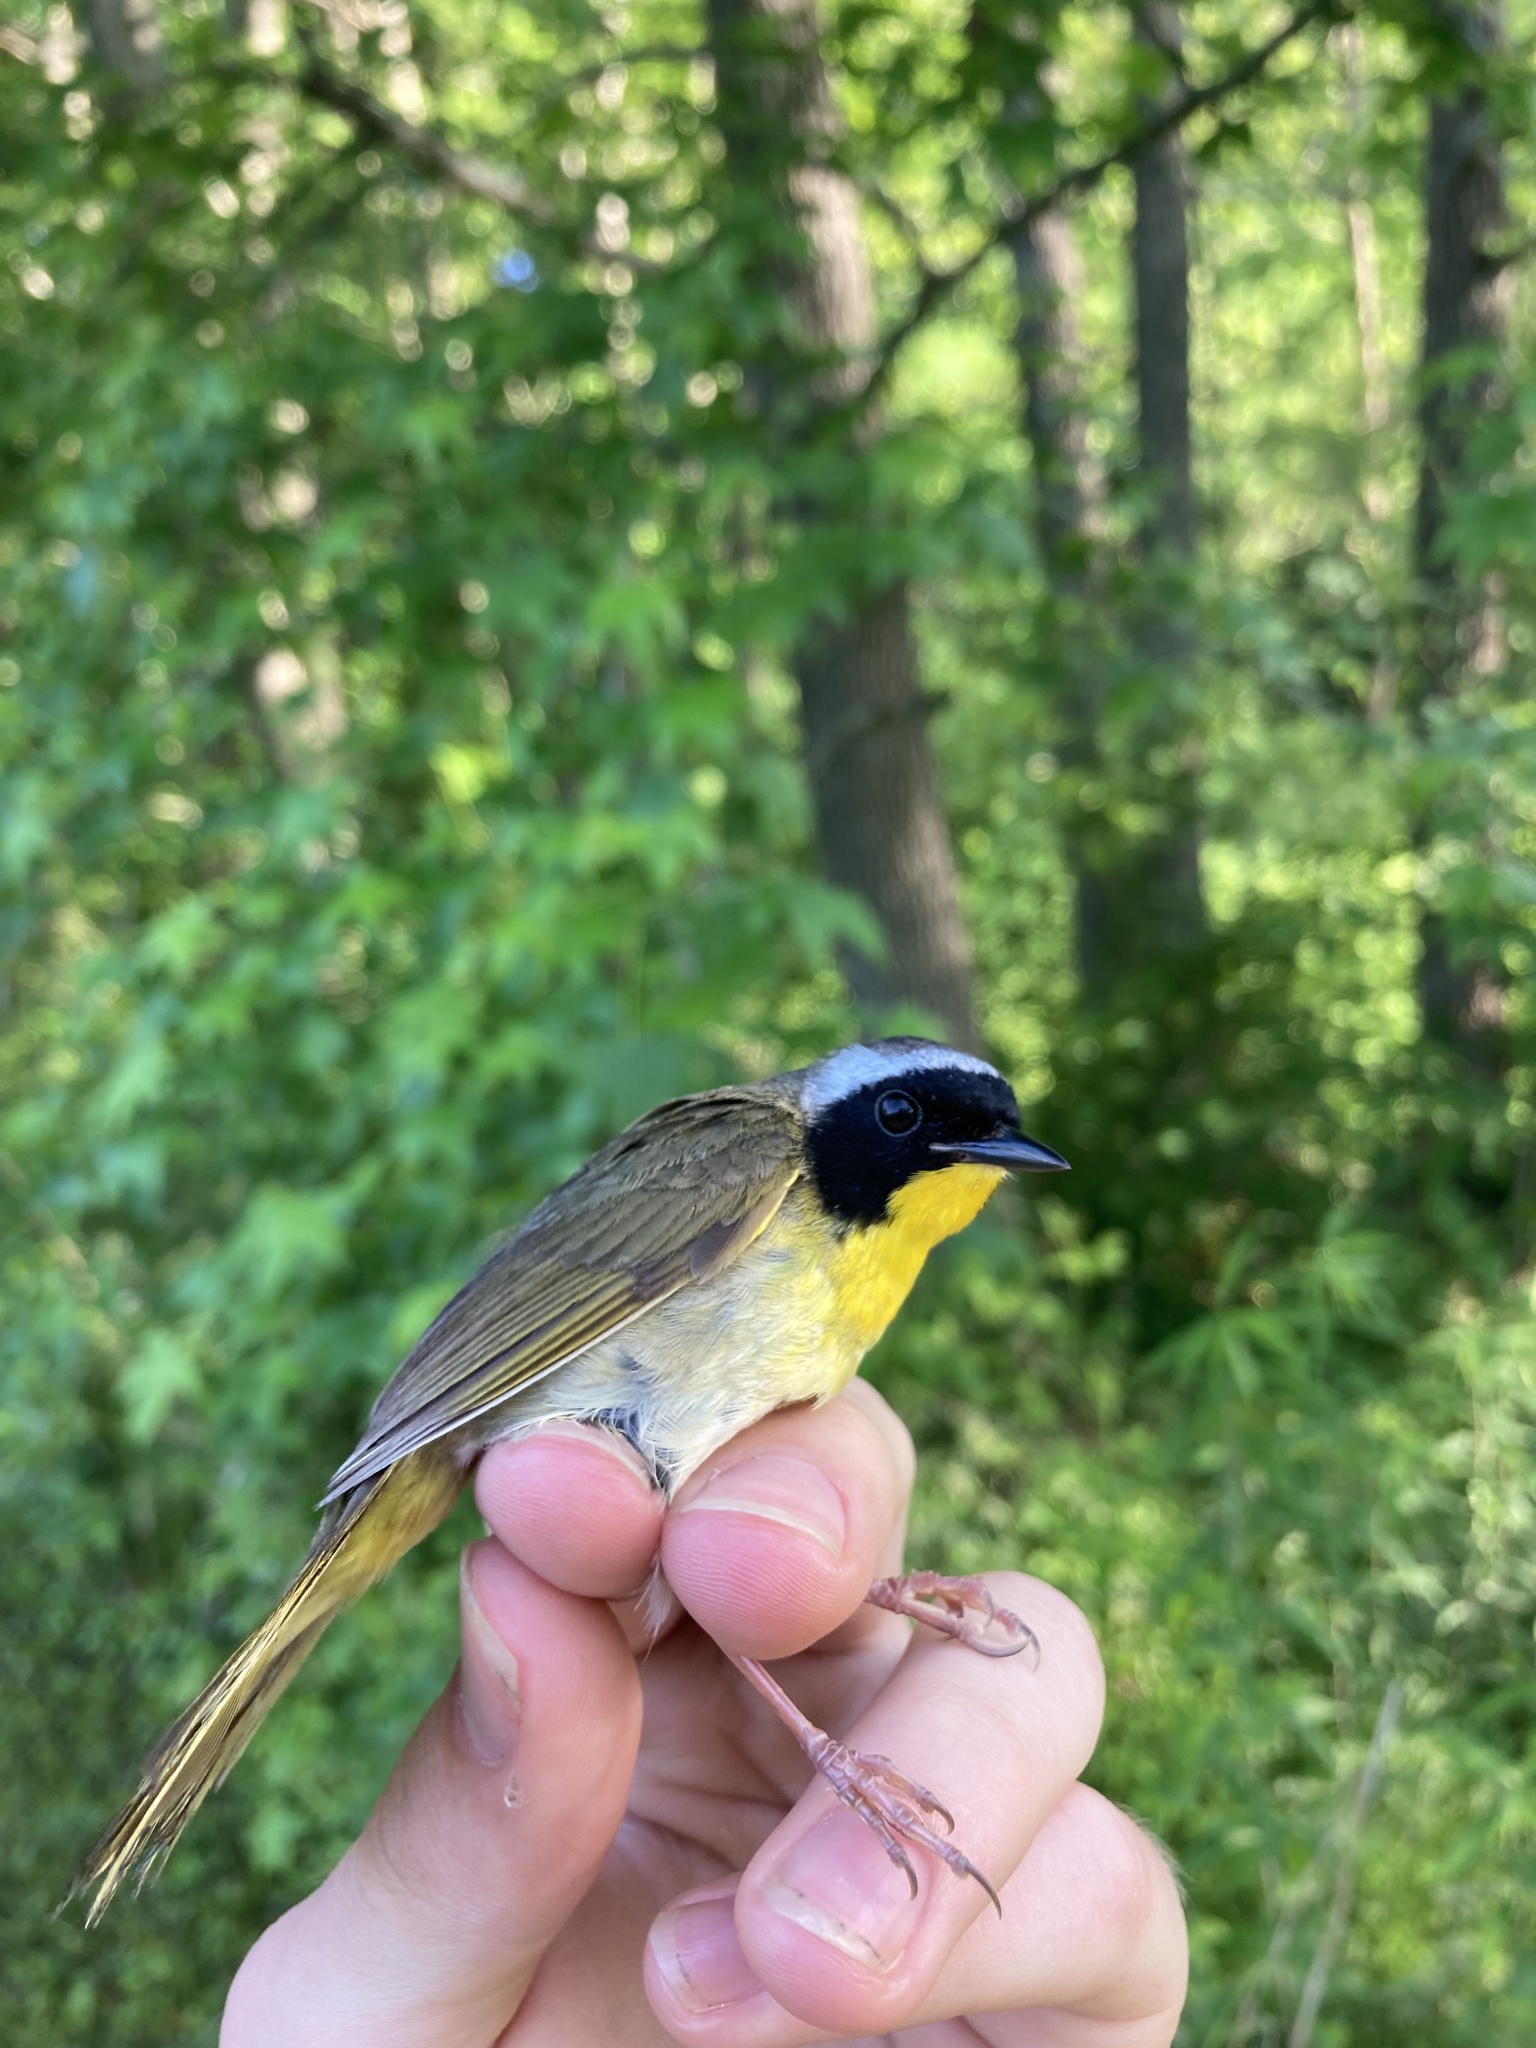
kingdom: Animalia
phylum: Chordata
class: Aves
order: Passeriformes
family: Parulidae
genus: Geothlypis
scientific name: Geothlypis trichas
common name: Common yellowthroat
